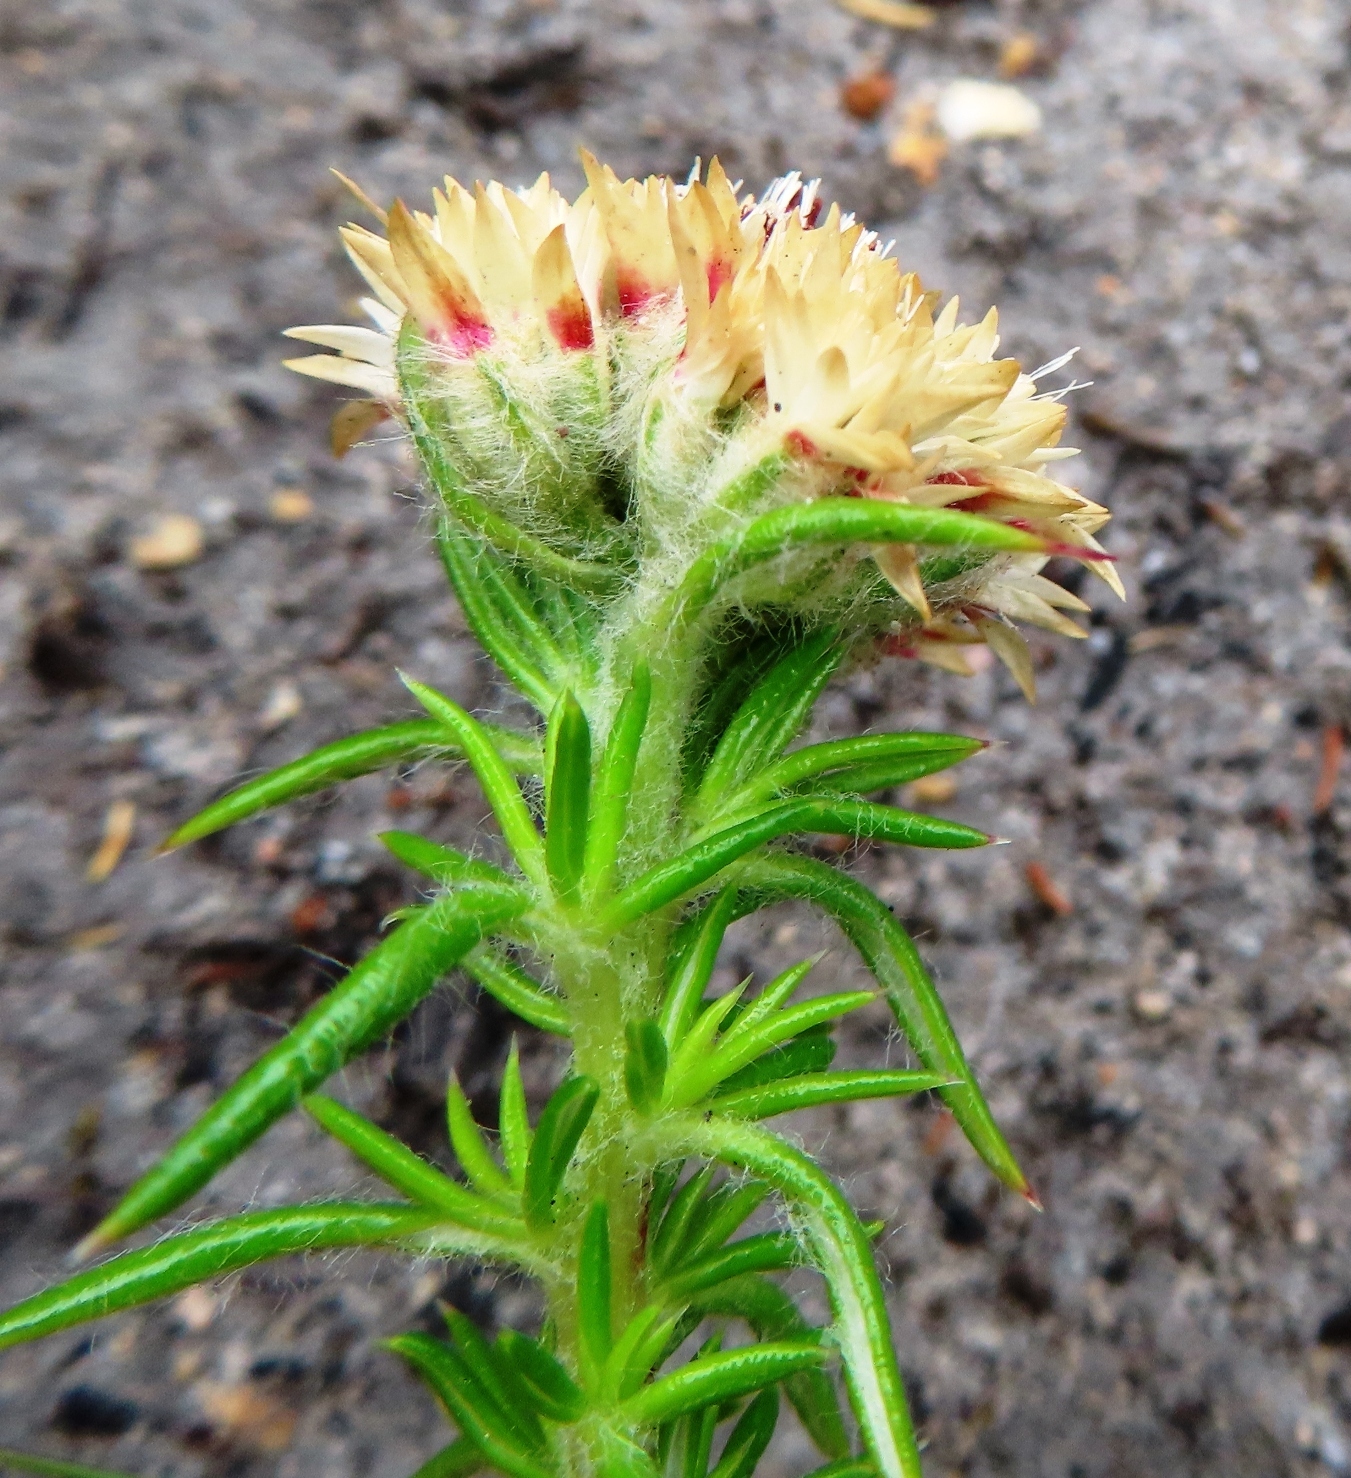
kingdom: Plantae
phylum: Tracheophyta
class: Magnoliopsida
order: Asterales
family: Asteraceae
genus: Metalasia
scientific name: Metalasia inversa
